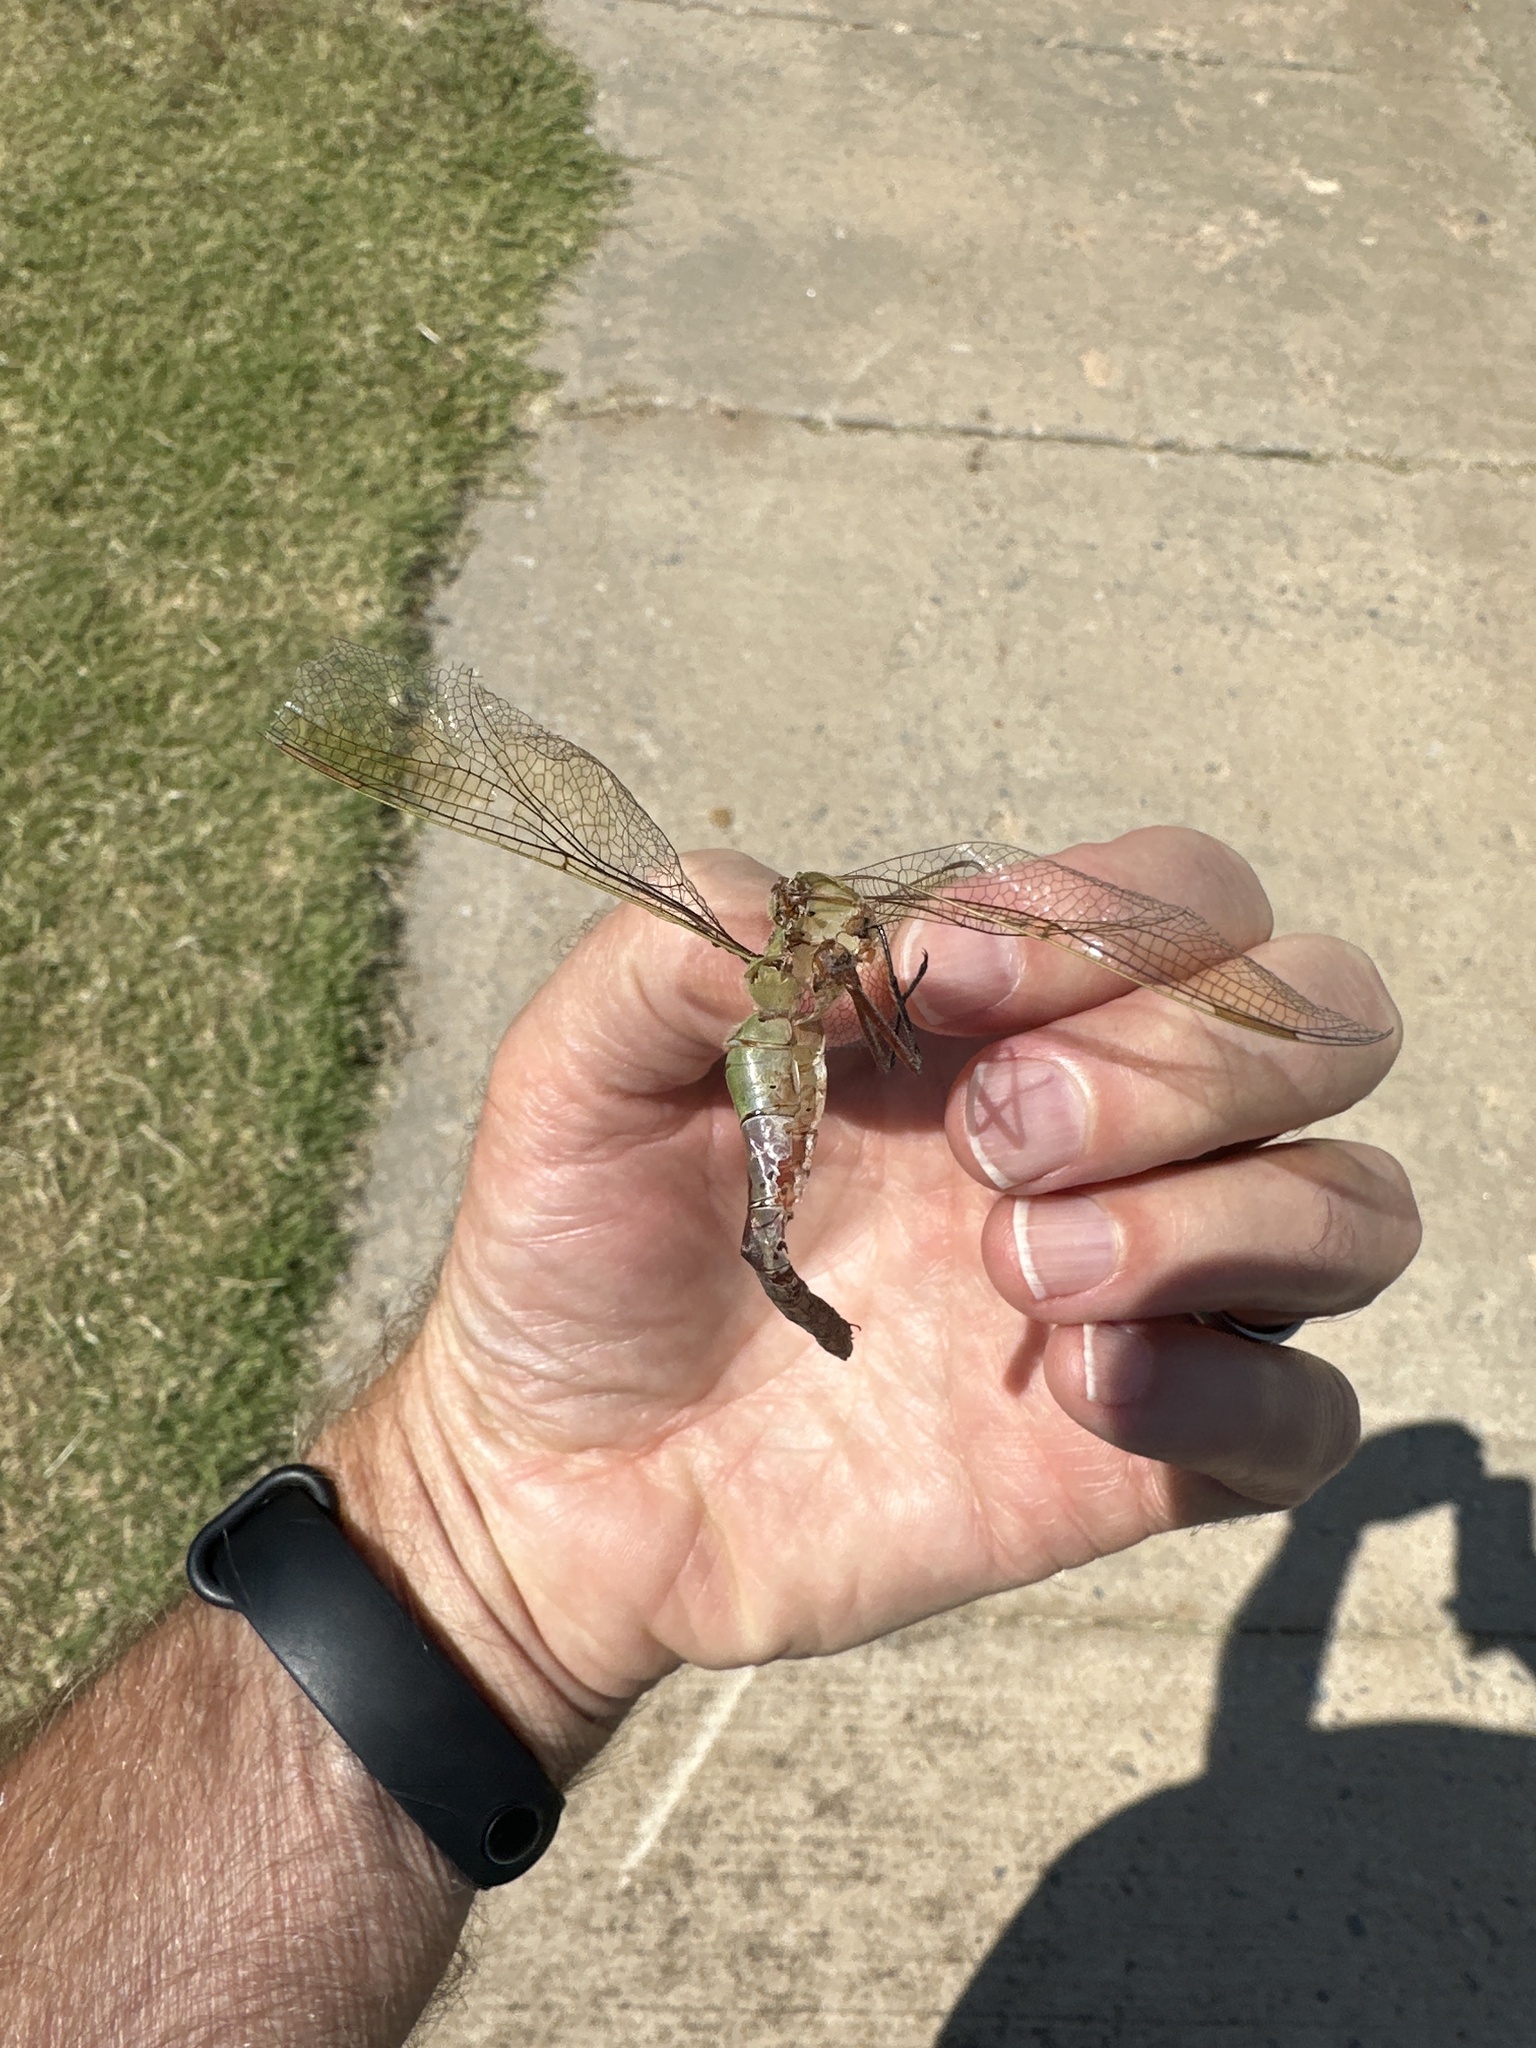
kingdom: Animalia
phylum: Arthropoda
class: Insecta
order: Odonata
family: Aeshnidae
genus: Anax
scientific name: Anax junius
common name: Common green darner
